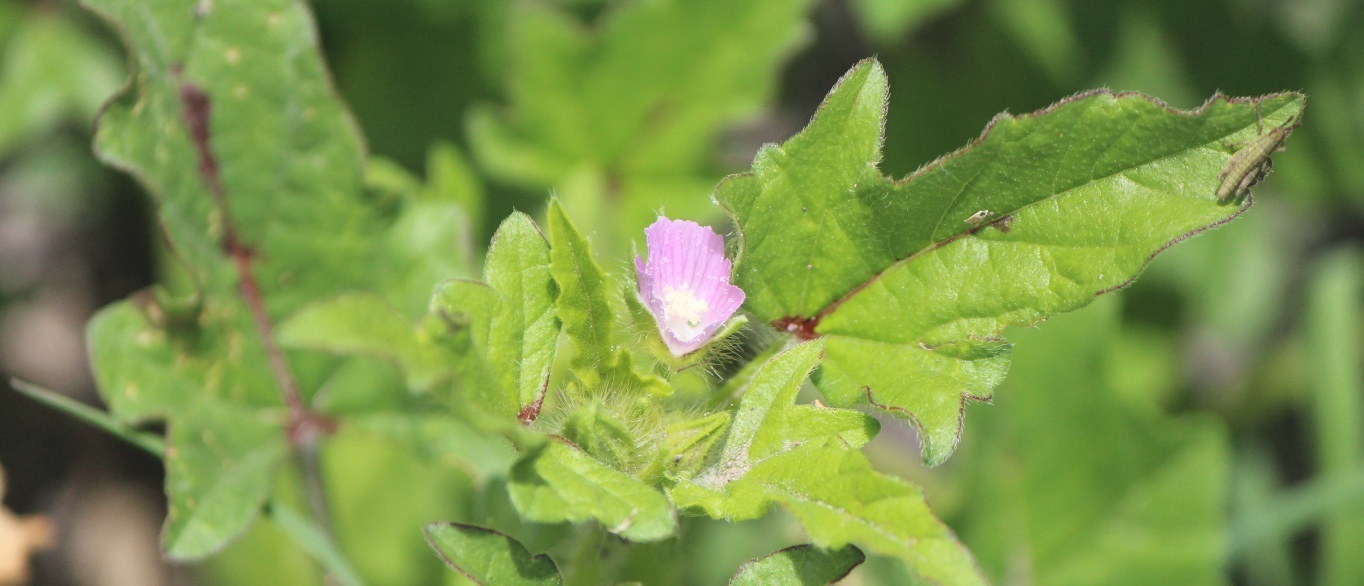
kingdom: Plantae
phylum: Tracheophyta
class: Magnoliopsida
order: Malvales
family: Malvaceae
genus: Anoda
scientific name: Anoda cristata
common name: Spurred anoda
